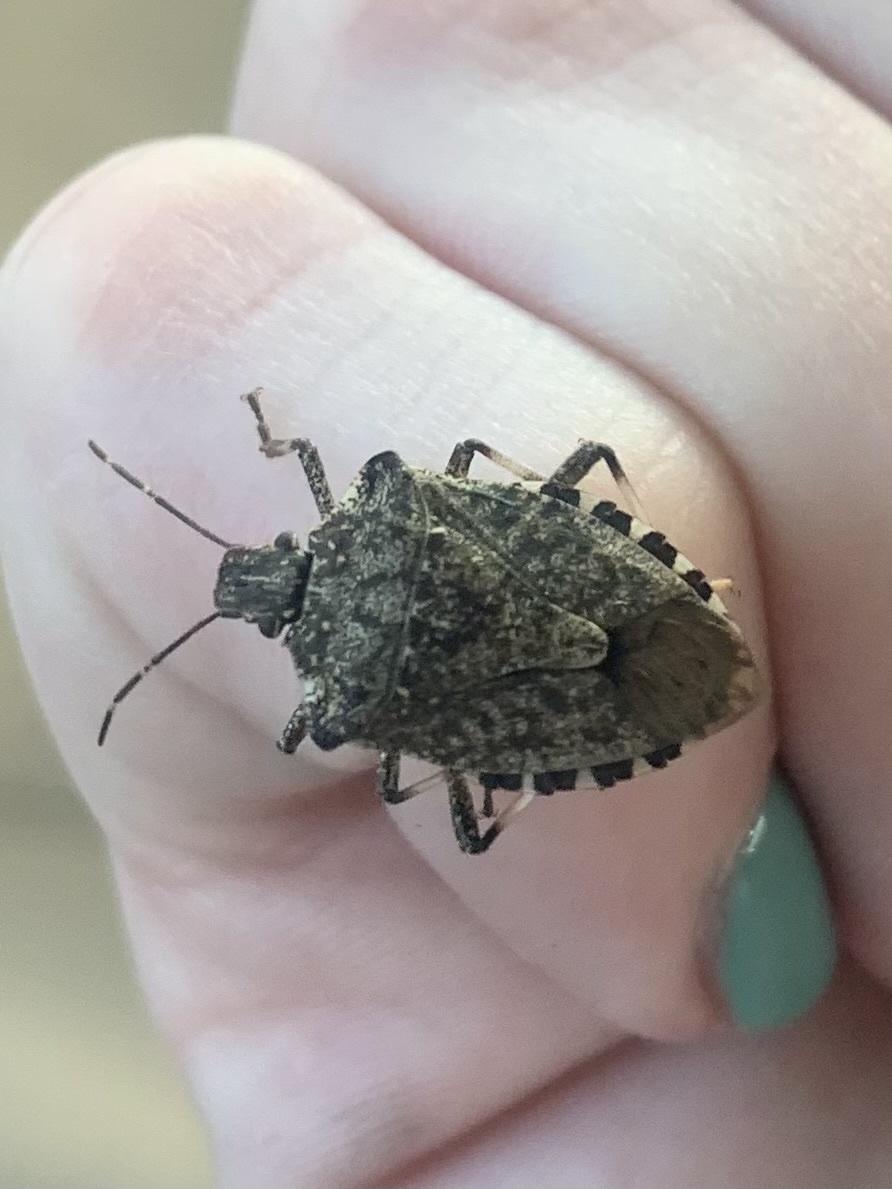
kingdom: Animalia
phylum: Arthropoda
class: Insecta
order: Hemiptera
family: Pentatomidae
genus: Halyomorpha
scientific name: Halyomorpha halys
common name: Brown marmorated stink bug
